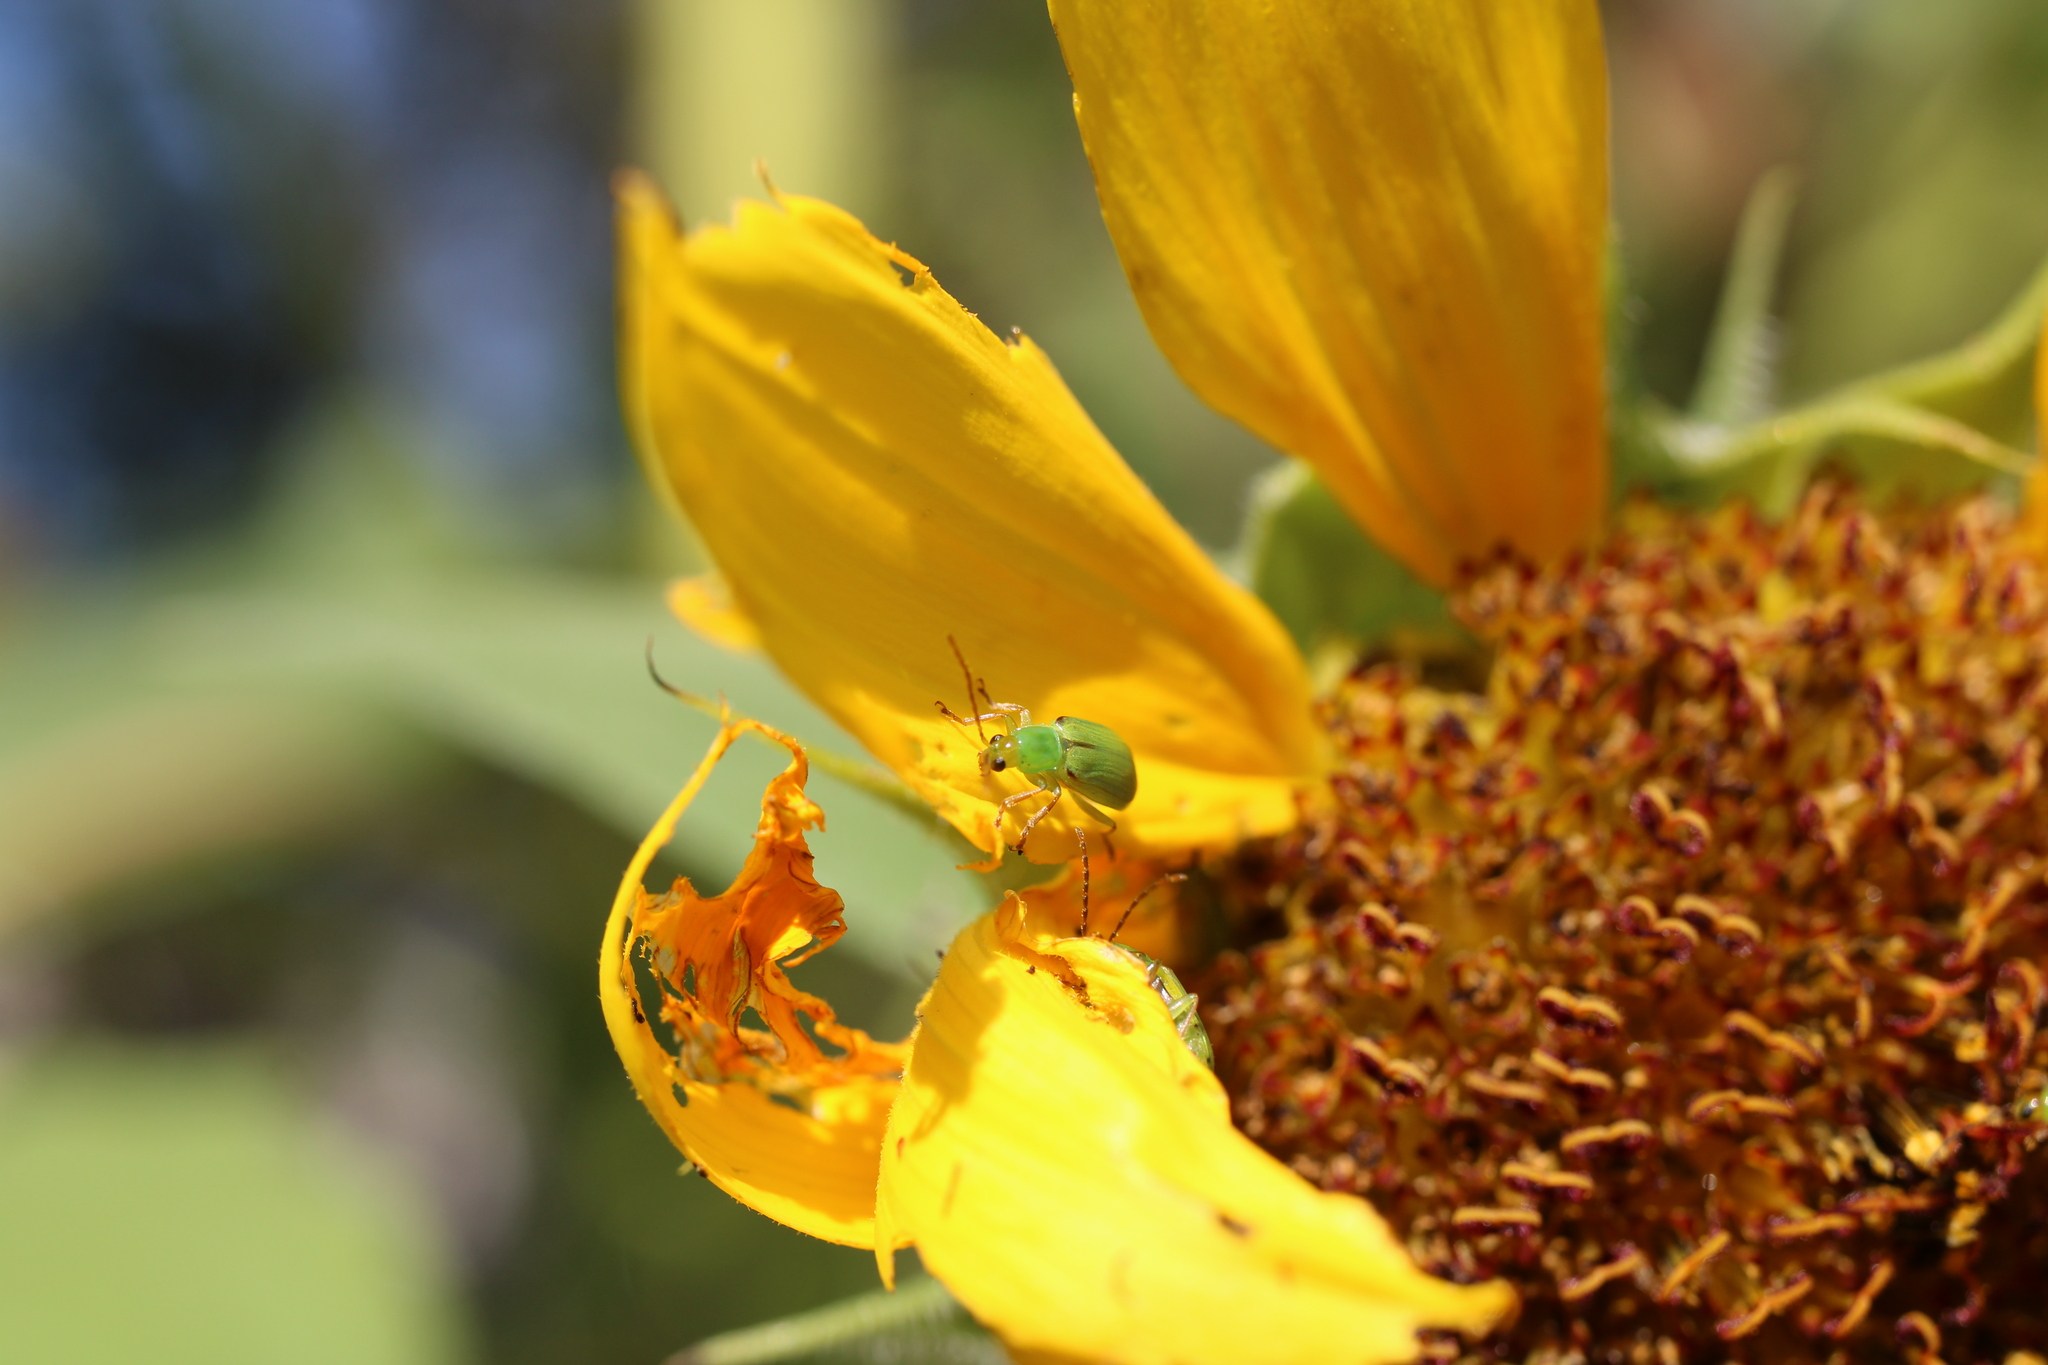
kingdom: Animalia
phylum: Arthropoda
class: Insecta
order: Coleoptera
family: Chrysomelidae
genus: Diabrotica
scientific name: Diabrotica barberi
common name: Northern corn rootworm
